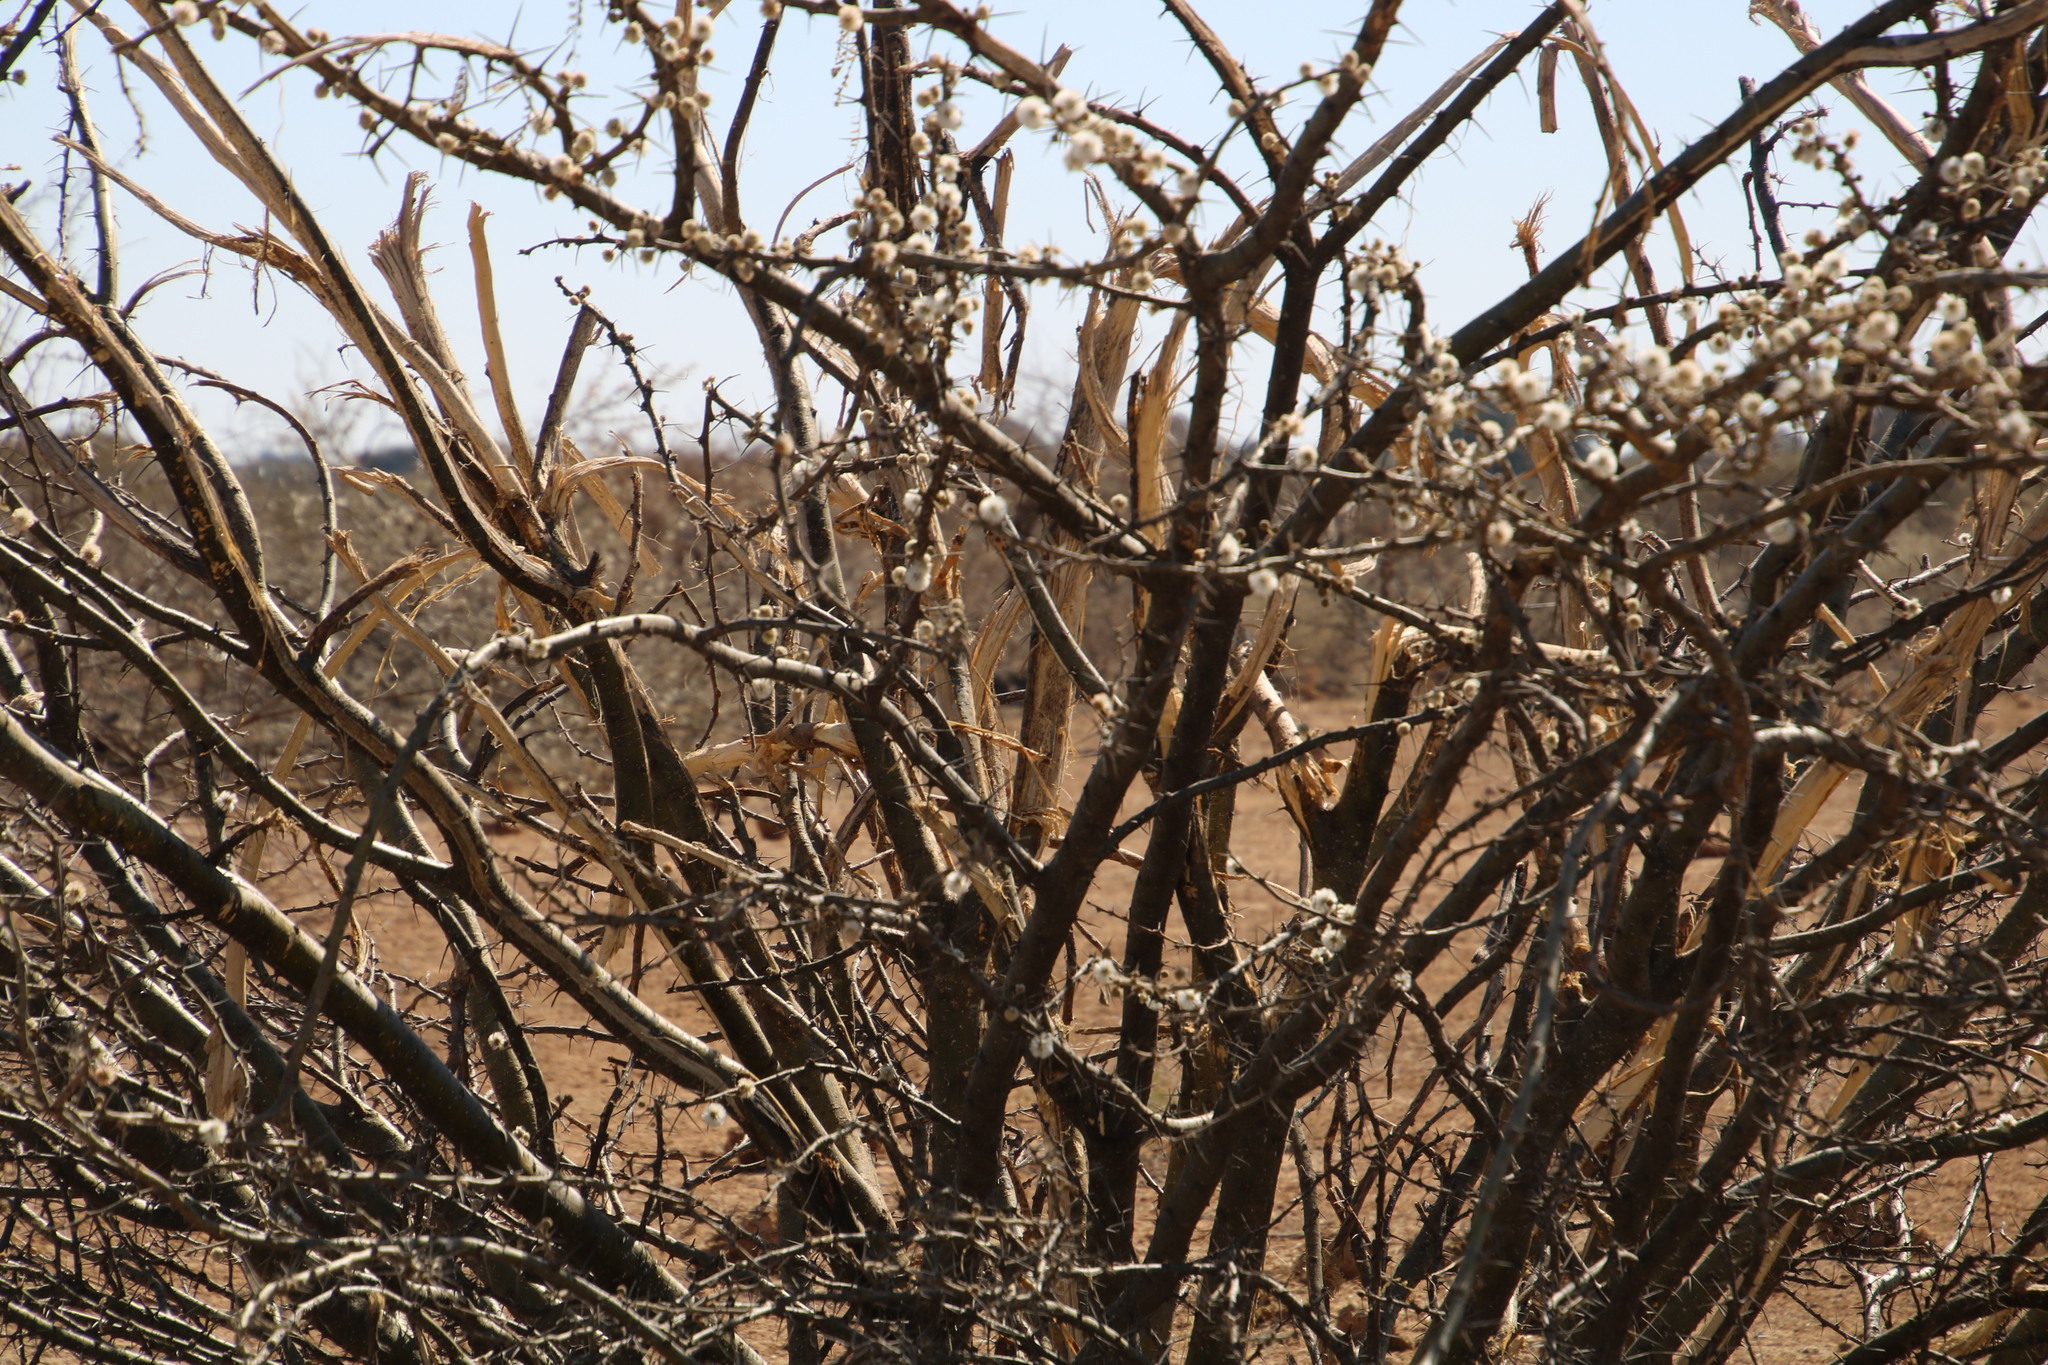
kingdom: Animalia
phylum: Chordata
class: Mammalia
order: Proboscidea
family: Elephantidae
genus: Loxodonta
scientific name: Loxodonta africana
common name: African elephant
